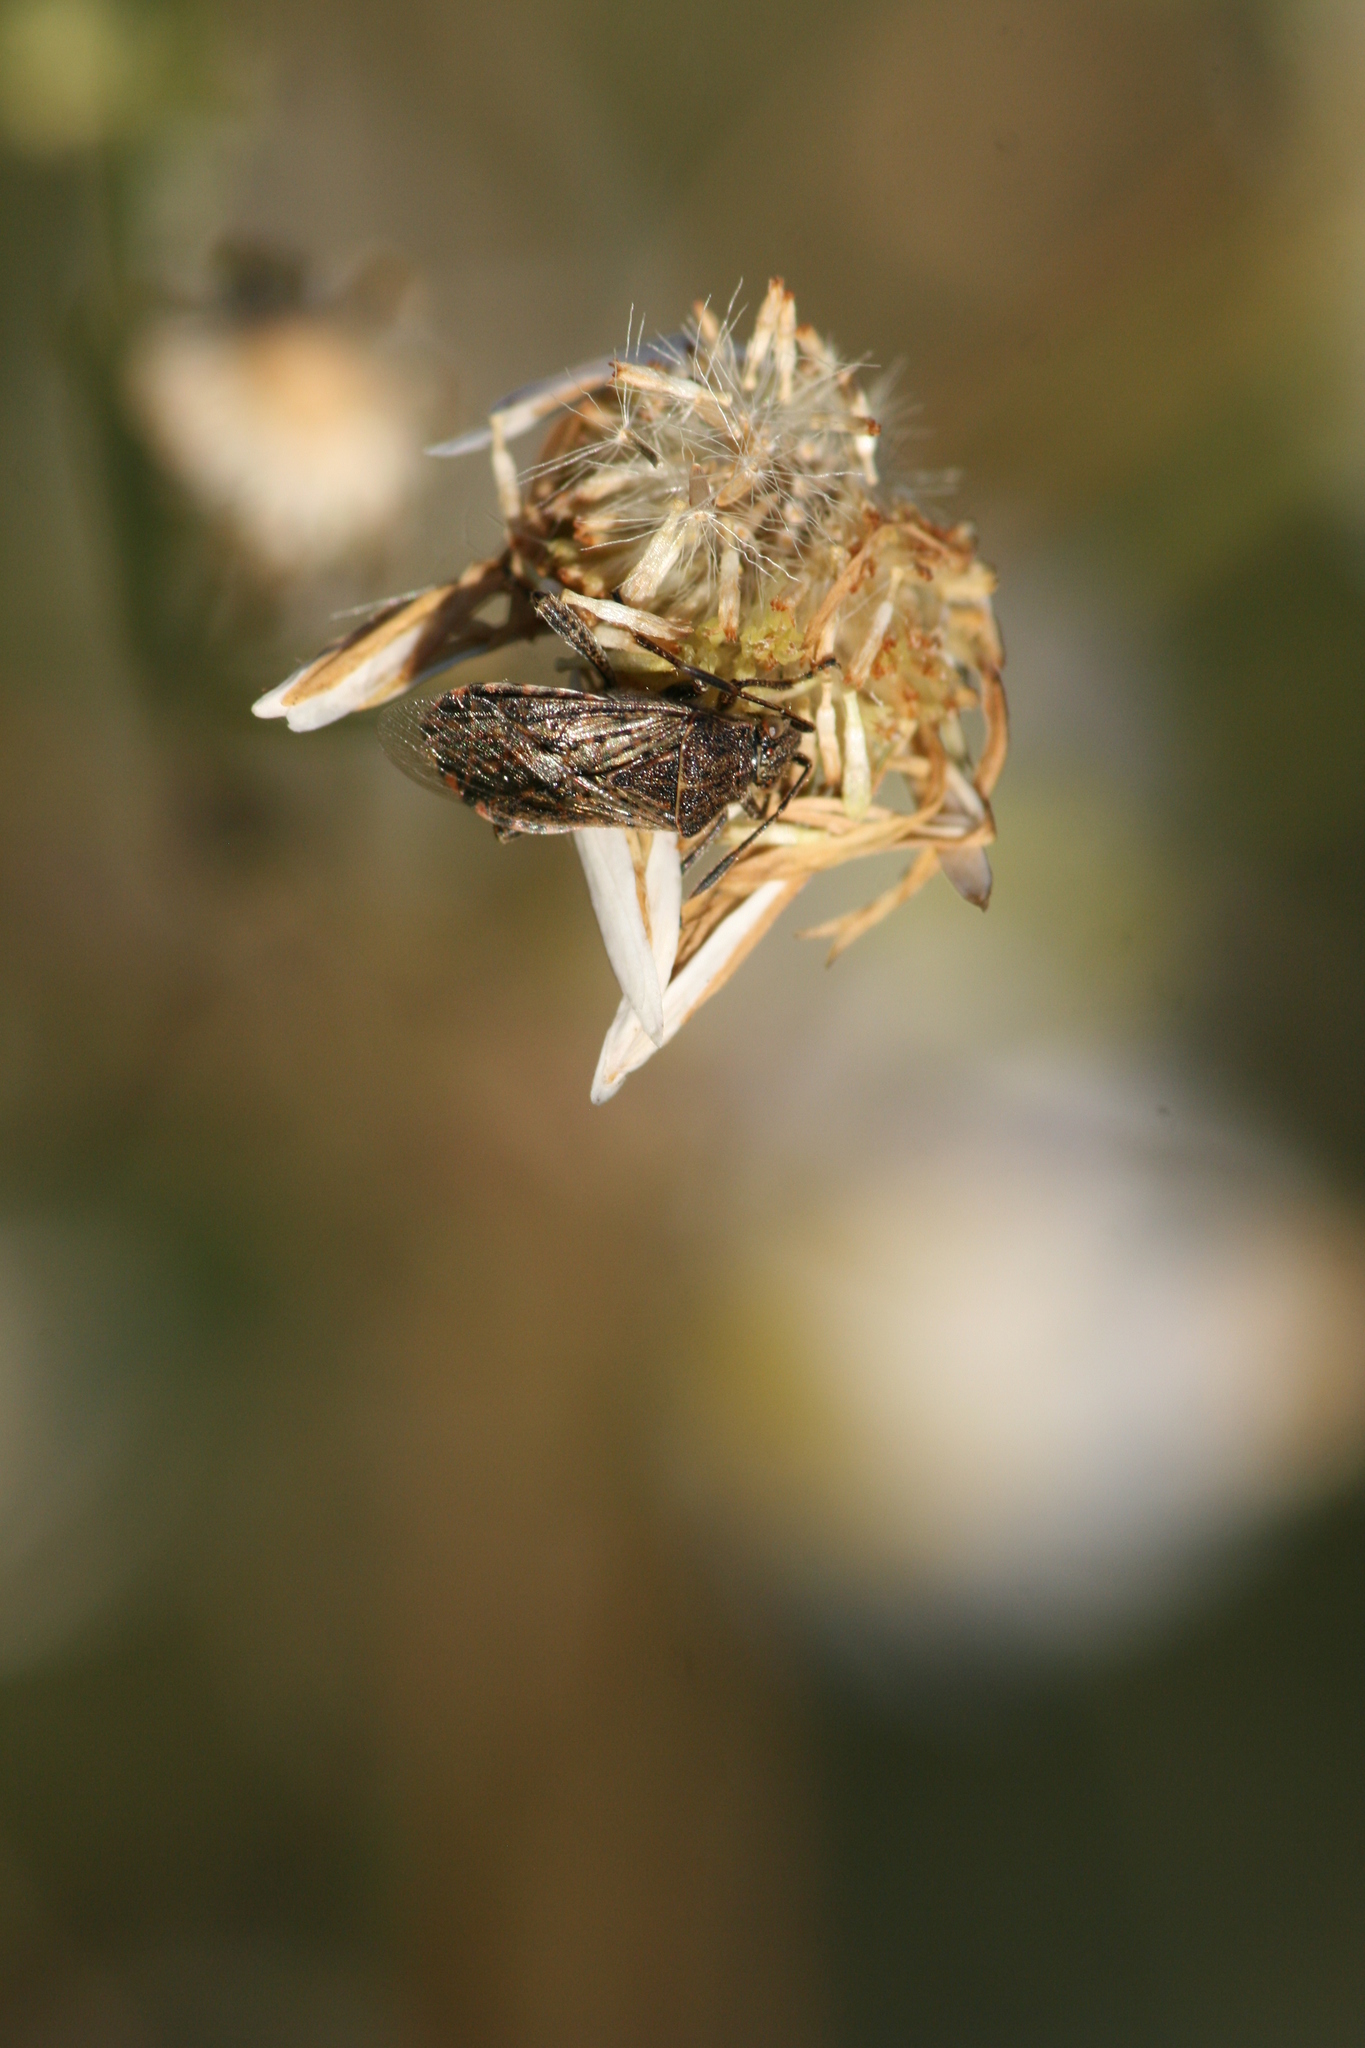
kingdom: Animalia
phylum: Arthropoda
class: Insecta
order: Hemiptera
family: Rhopalidae
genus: Stictopleurus
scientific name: Stictopleurus punctatonervosus
